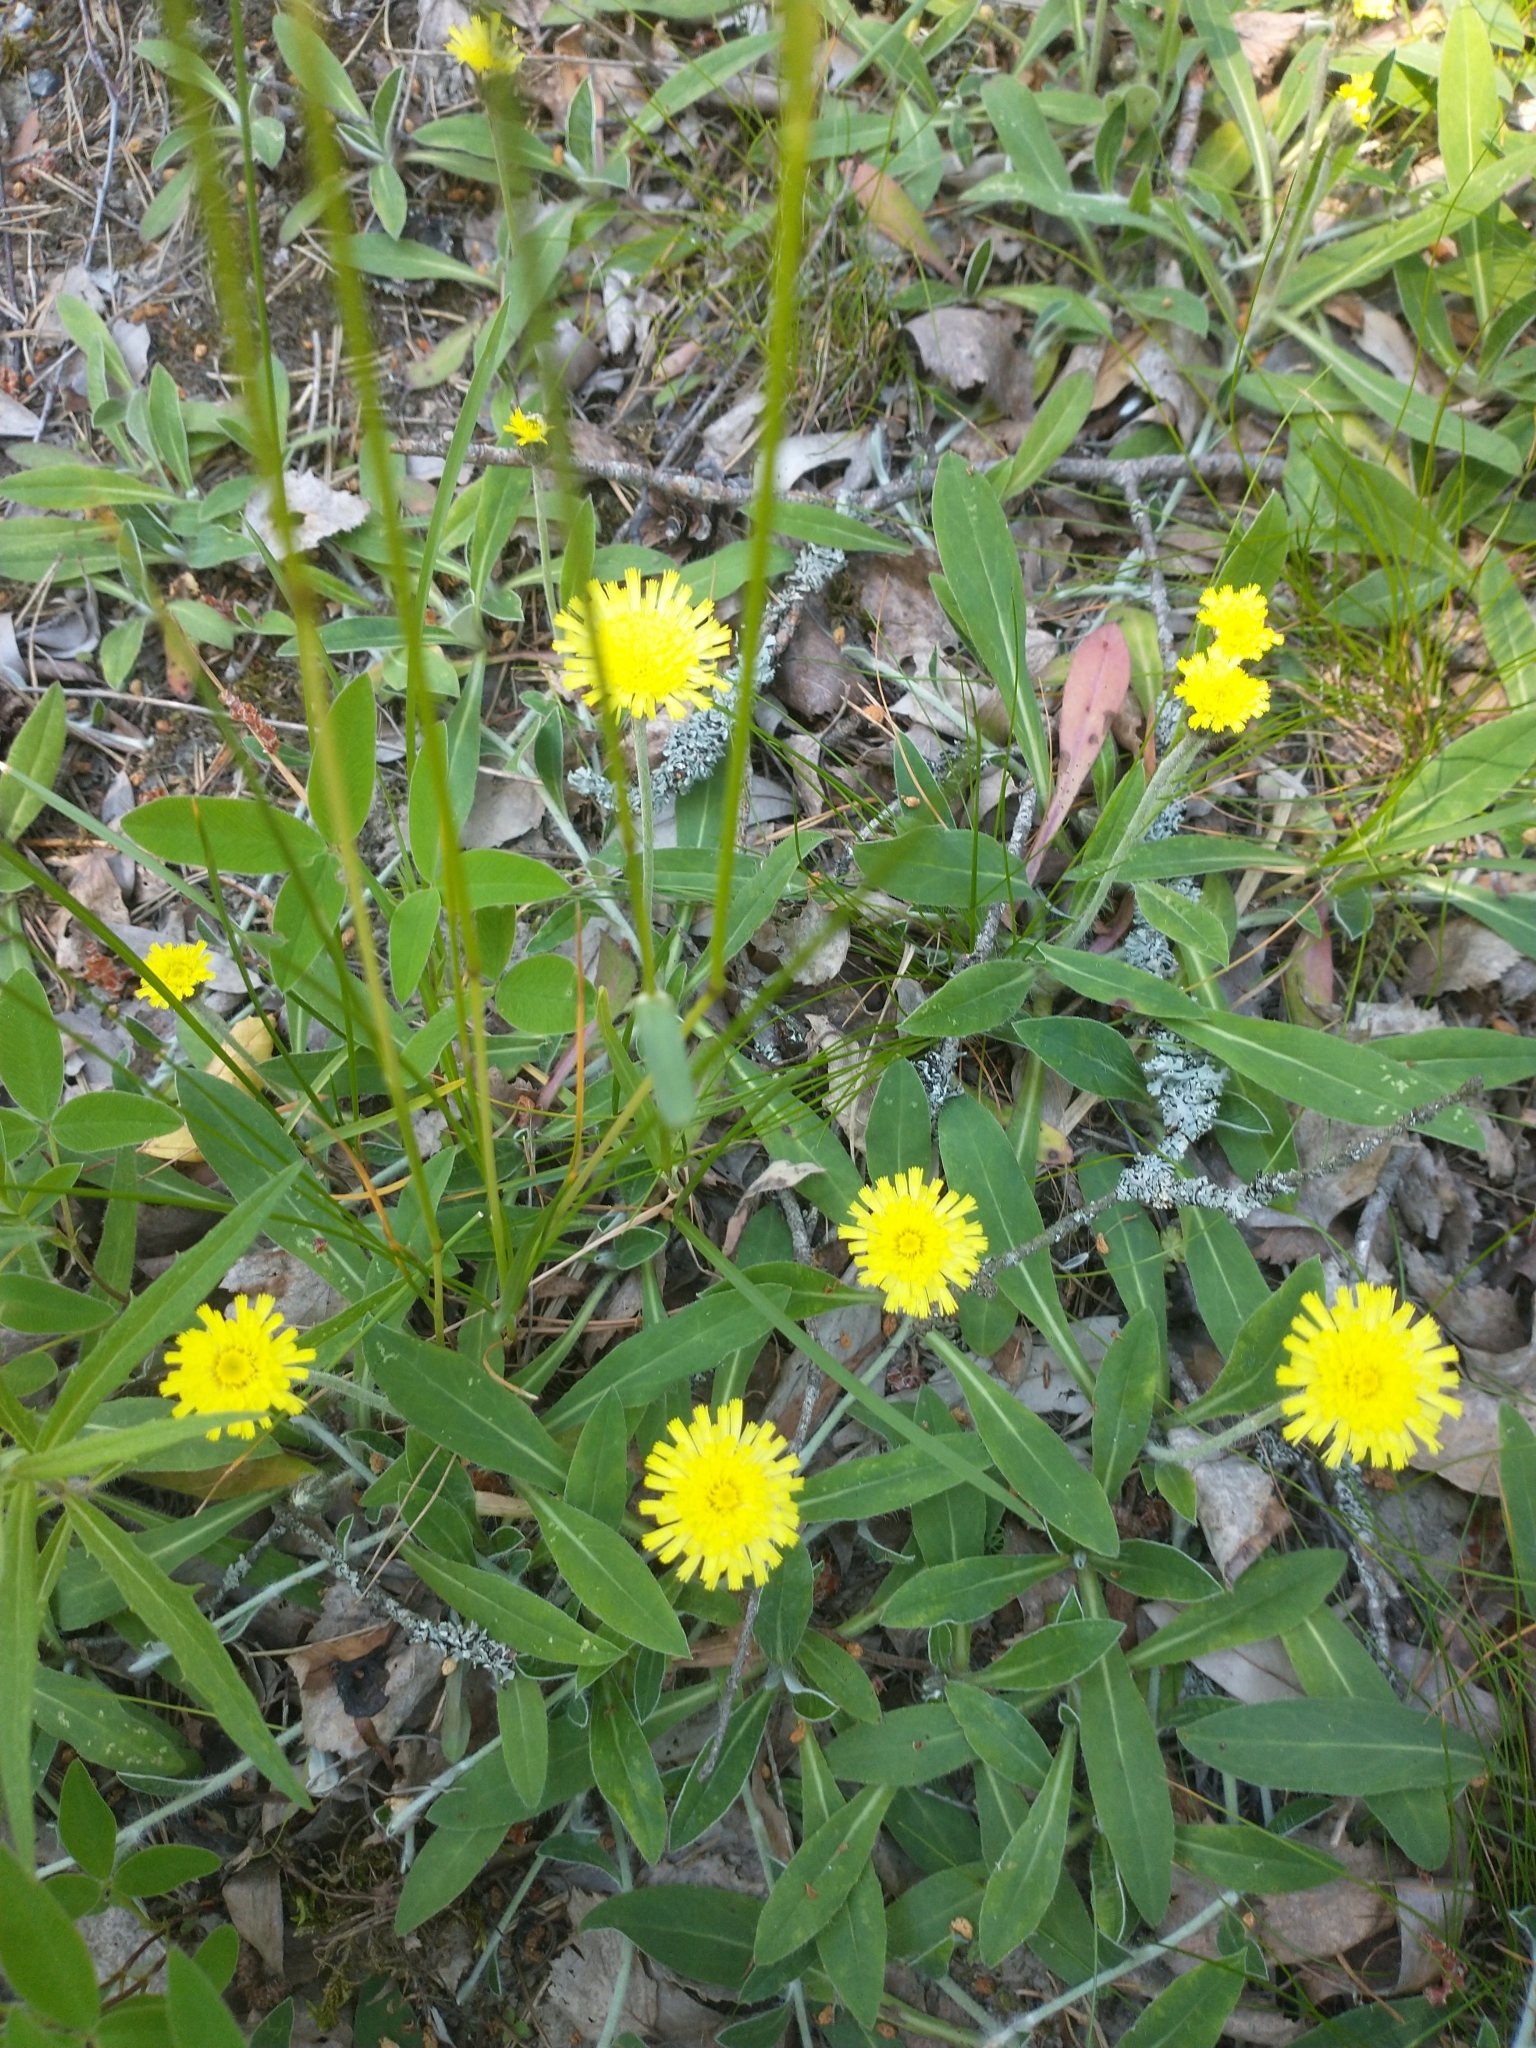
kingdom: Plantae
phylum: Tracheophyta
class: Magnoliopsida
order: Asterales
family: Asteraceae
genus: Pilosella
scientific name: Pilosella officinarum
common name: Mouse-ear hawkweed
